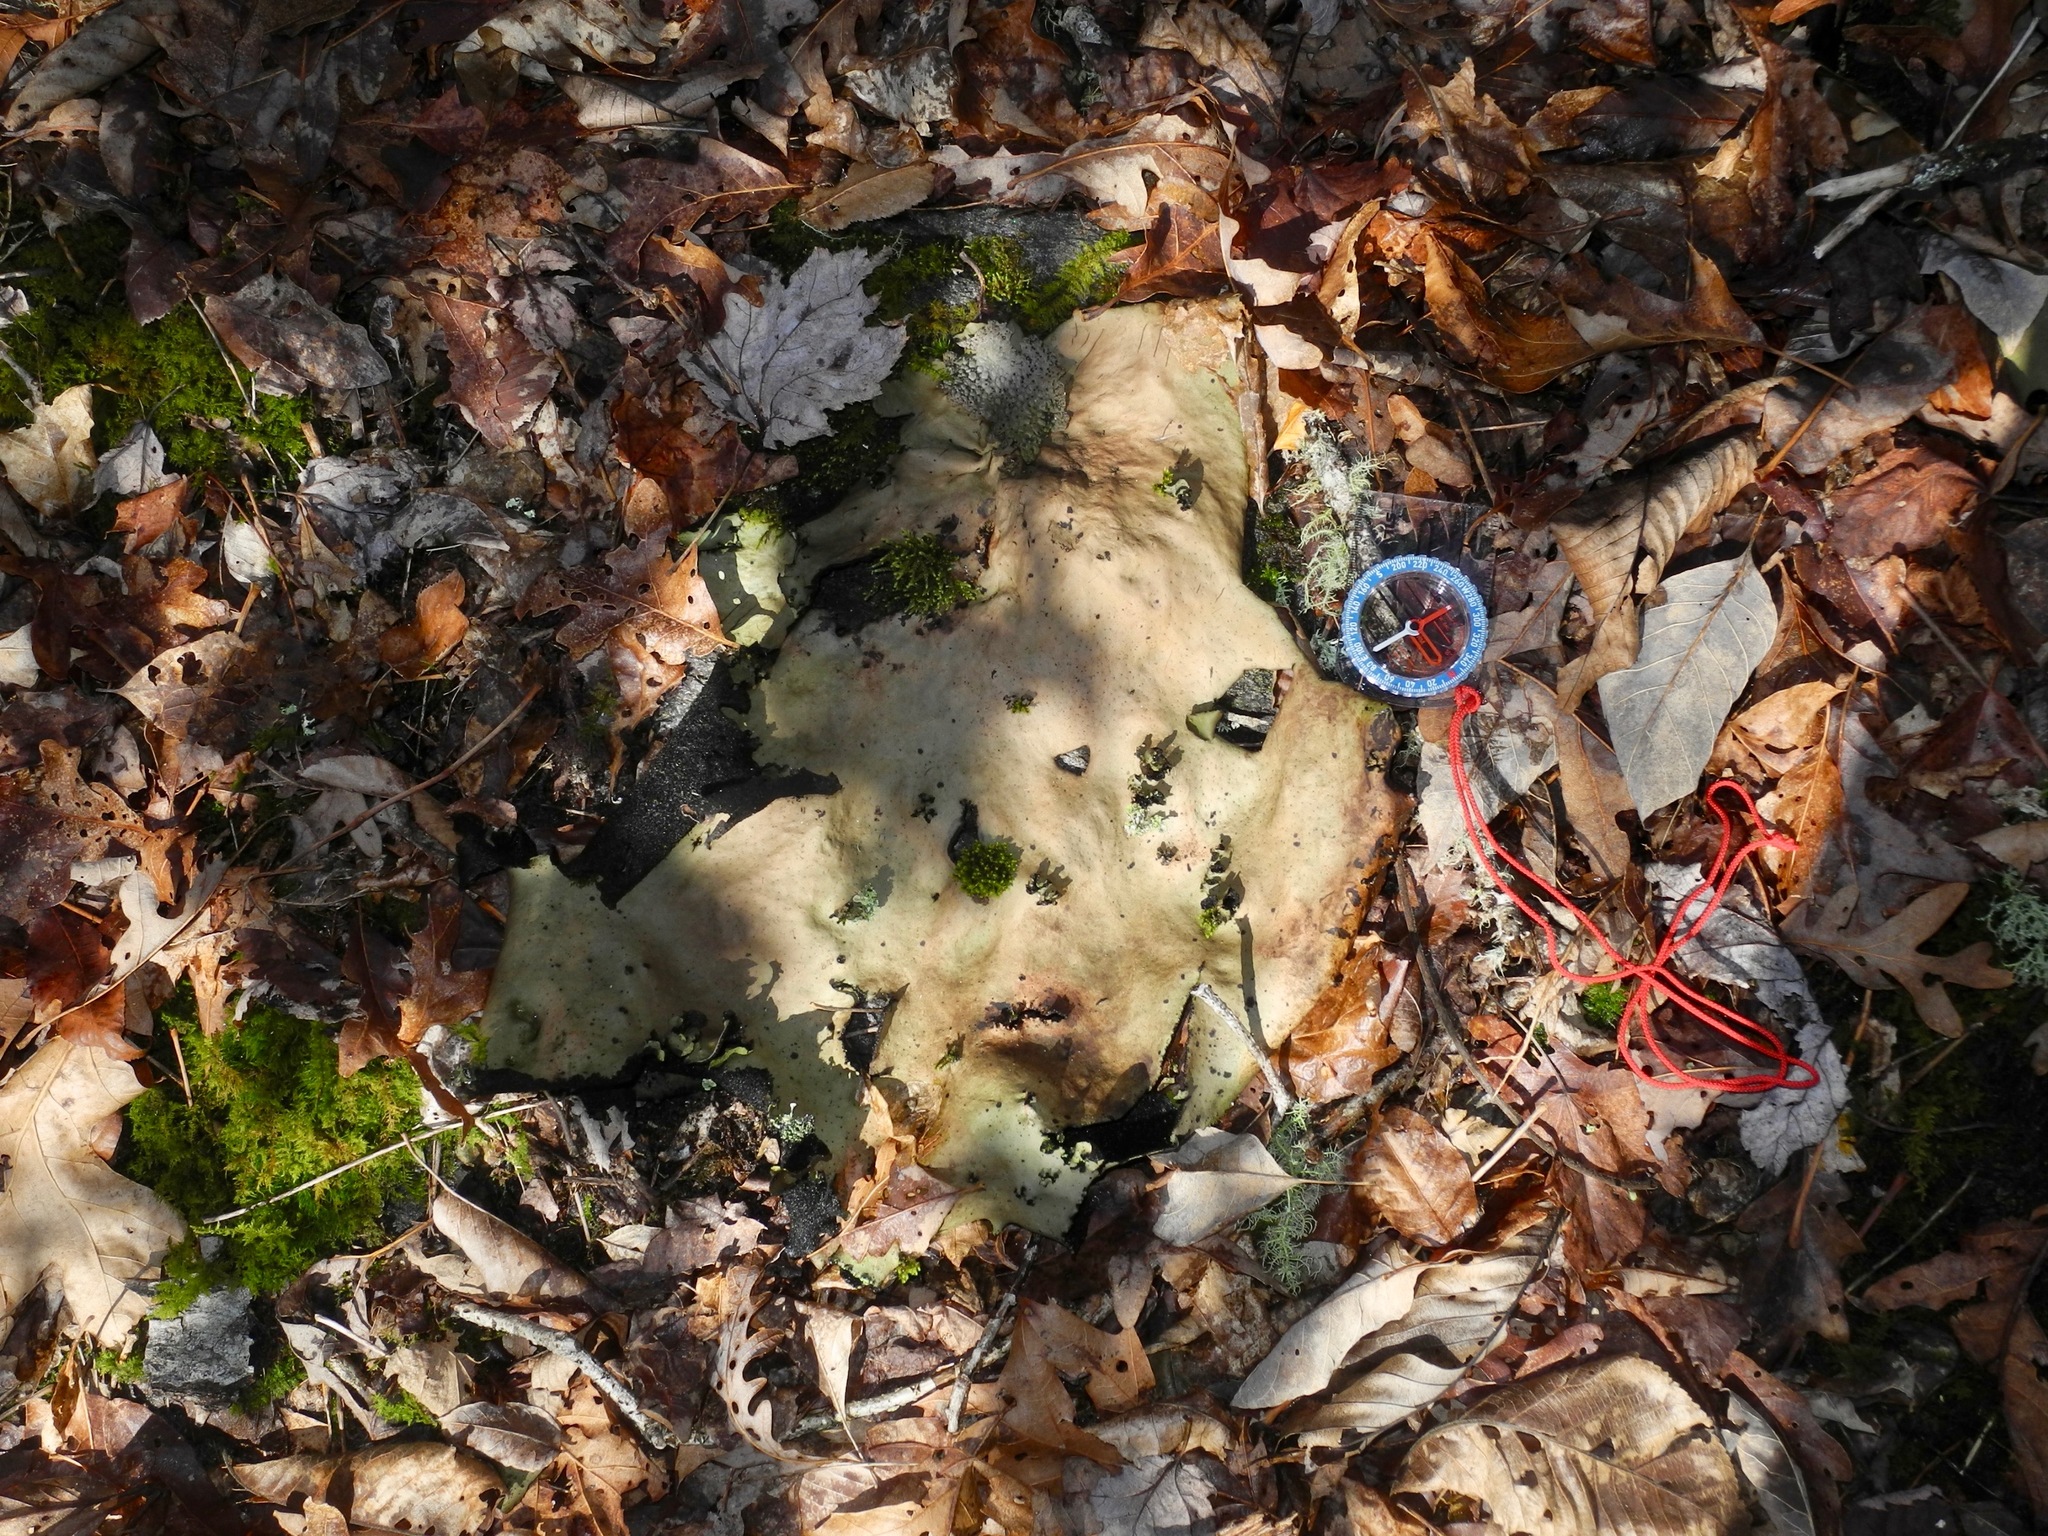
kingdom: Fungi
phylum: Ascomycota
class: Lecanoromycetes
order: Umbilicariales
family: Umbilicariaceae
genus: Umbilicaria
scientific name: Umbilicaria mammulata
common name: Smooth rock tripe
